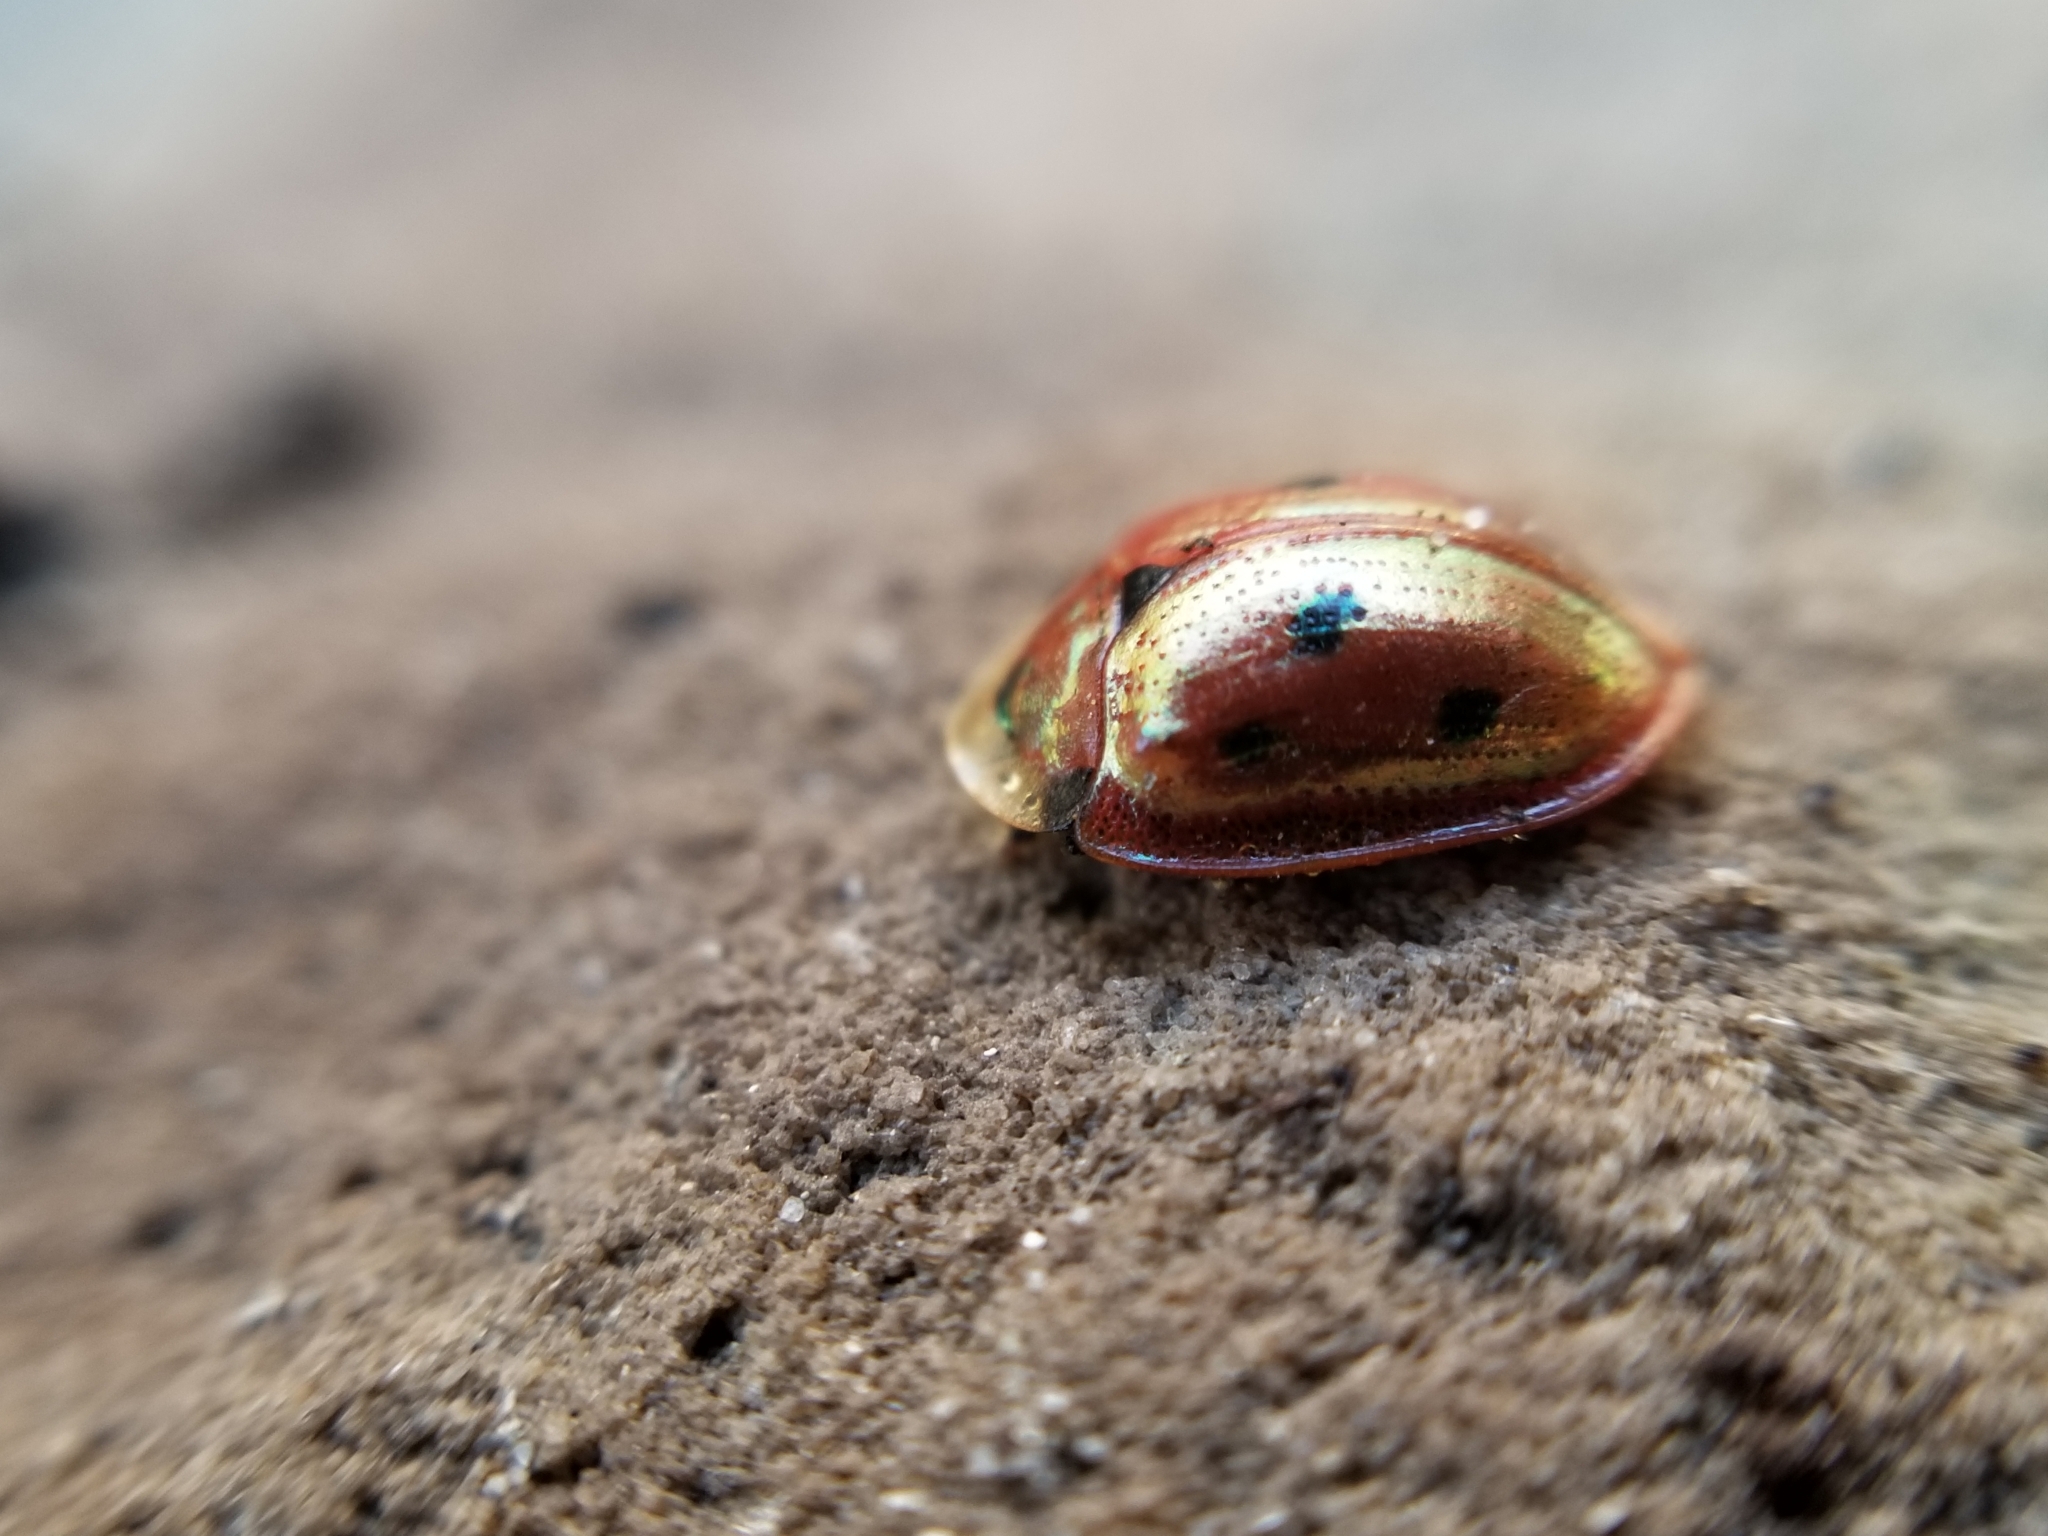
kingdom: Animalia
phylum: Arthropoda
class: Insecta
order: Coleoptera
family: Chrysomelidae
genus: Jonthonota
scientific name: Jonthonota nigripes
